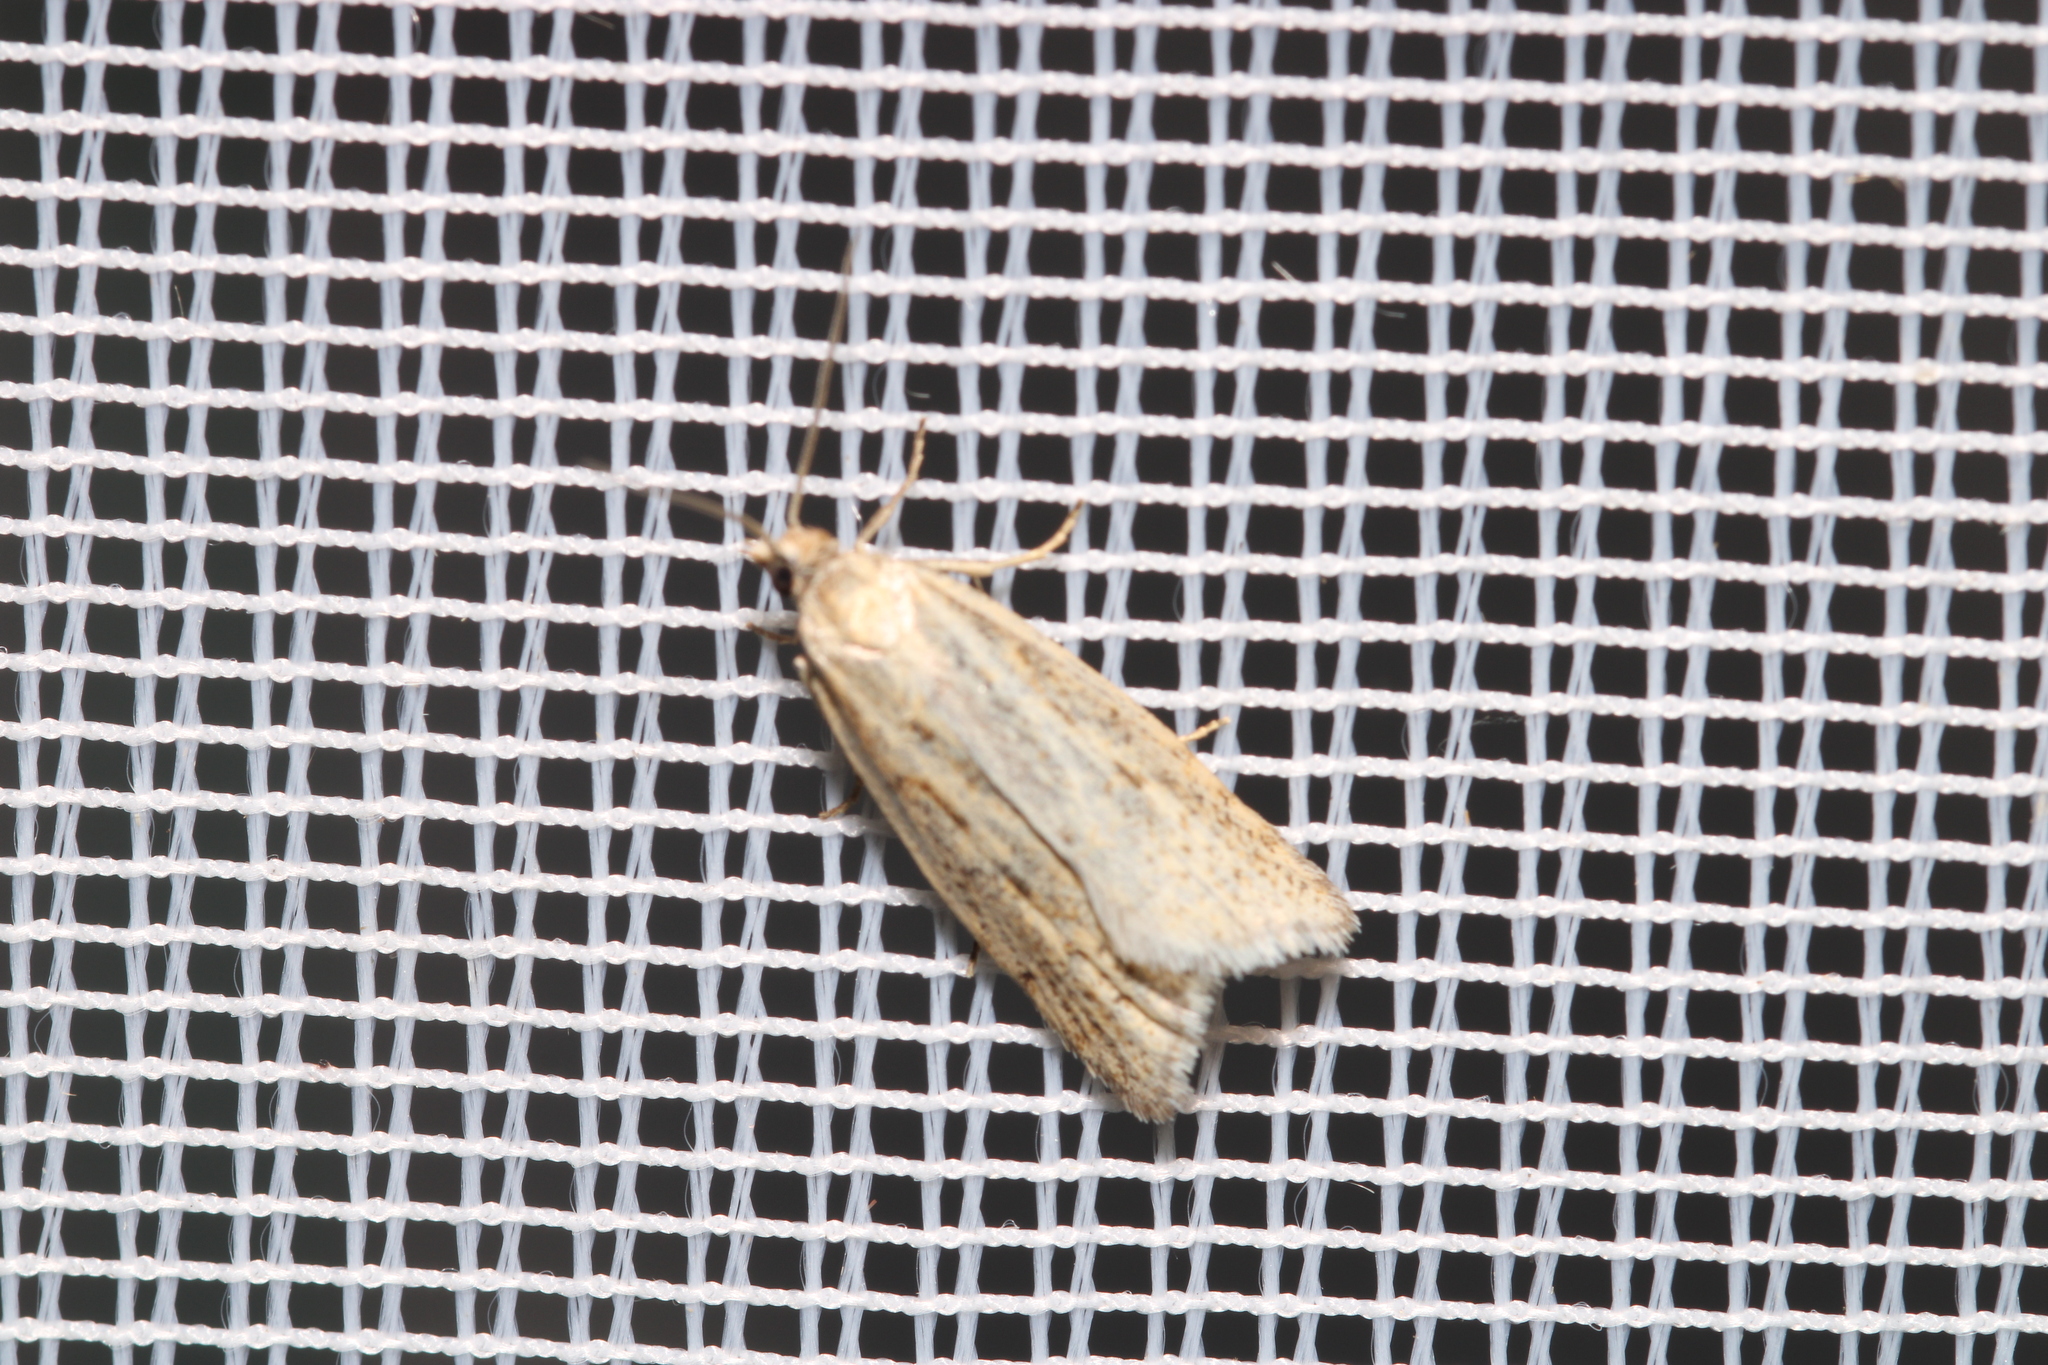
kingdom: Animalia
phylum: Arthropoda
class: Insecta
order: Lepidoptera
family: Tortricidae
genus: Eana
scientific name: Eana osseana
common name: Dotted shade
